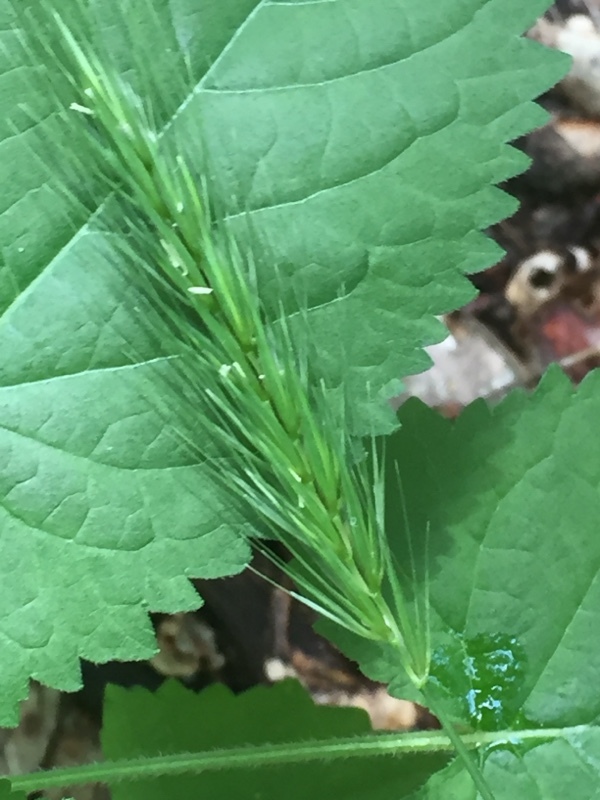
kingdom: Plantae
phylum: Tracheophyta
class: Liliopsida
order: Poales
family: Poaceae
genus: Hordelymus
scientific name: Hordelymus europaeus
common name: Wood-barley
